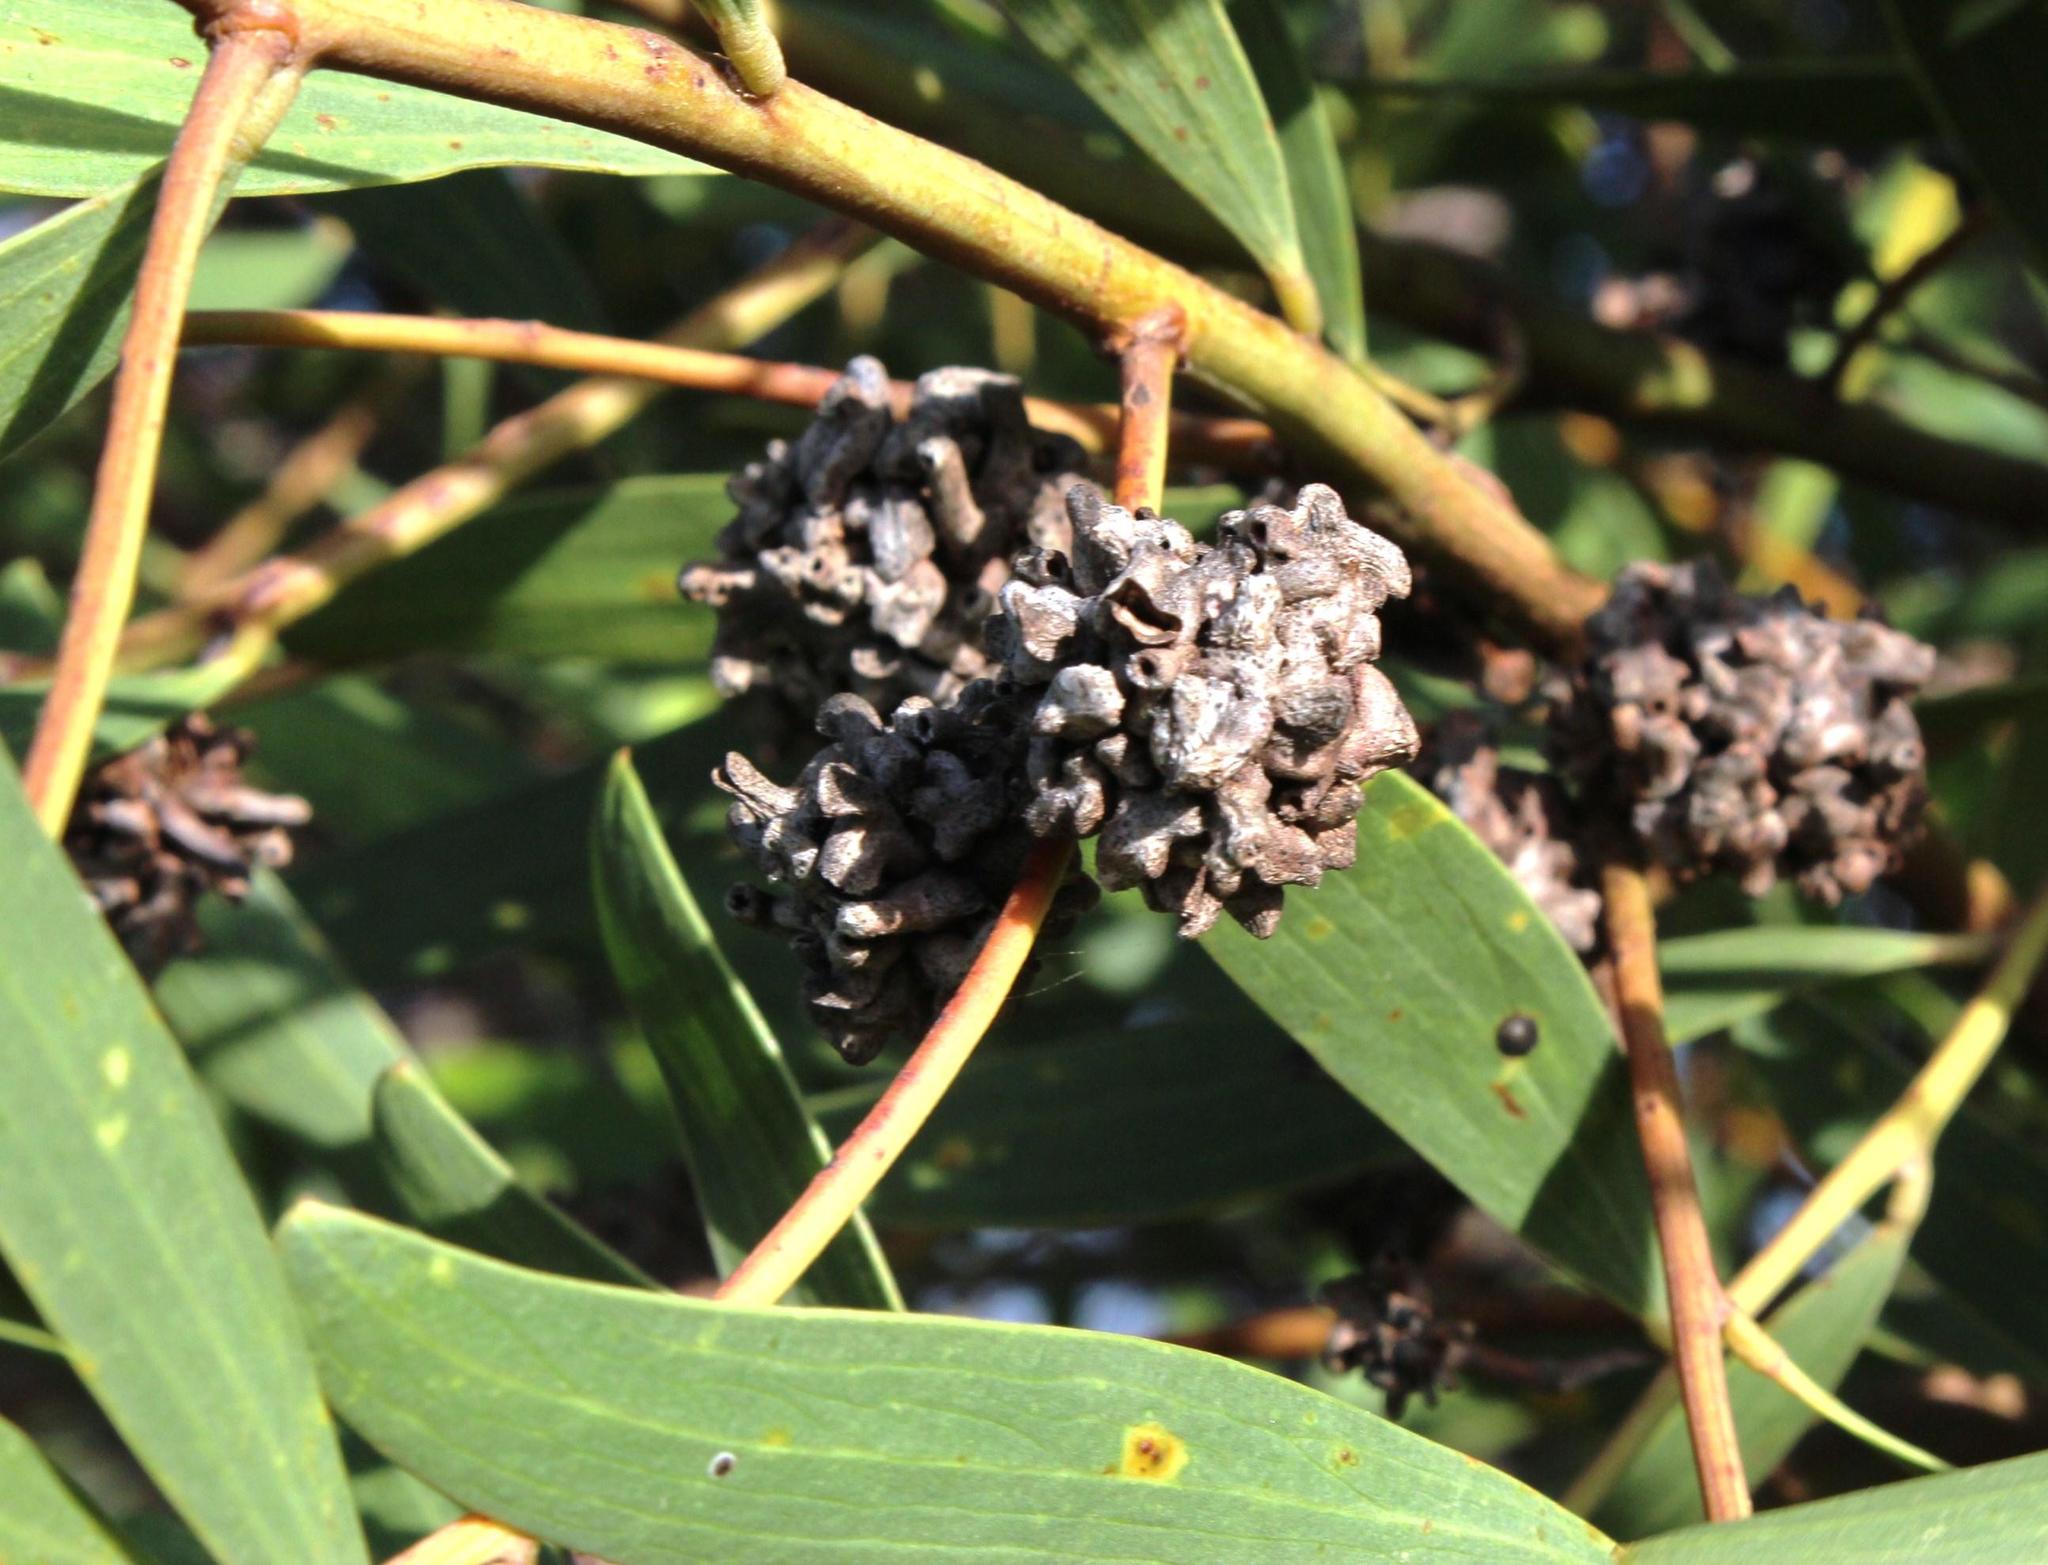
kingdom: Animalia
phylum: Arthropoda
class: Insecta
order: Diptera
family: Cecidomyiidae
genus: Dasineura
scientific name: Dasineura dielsi
